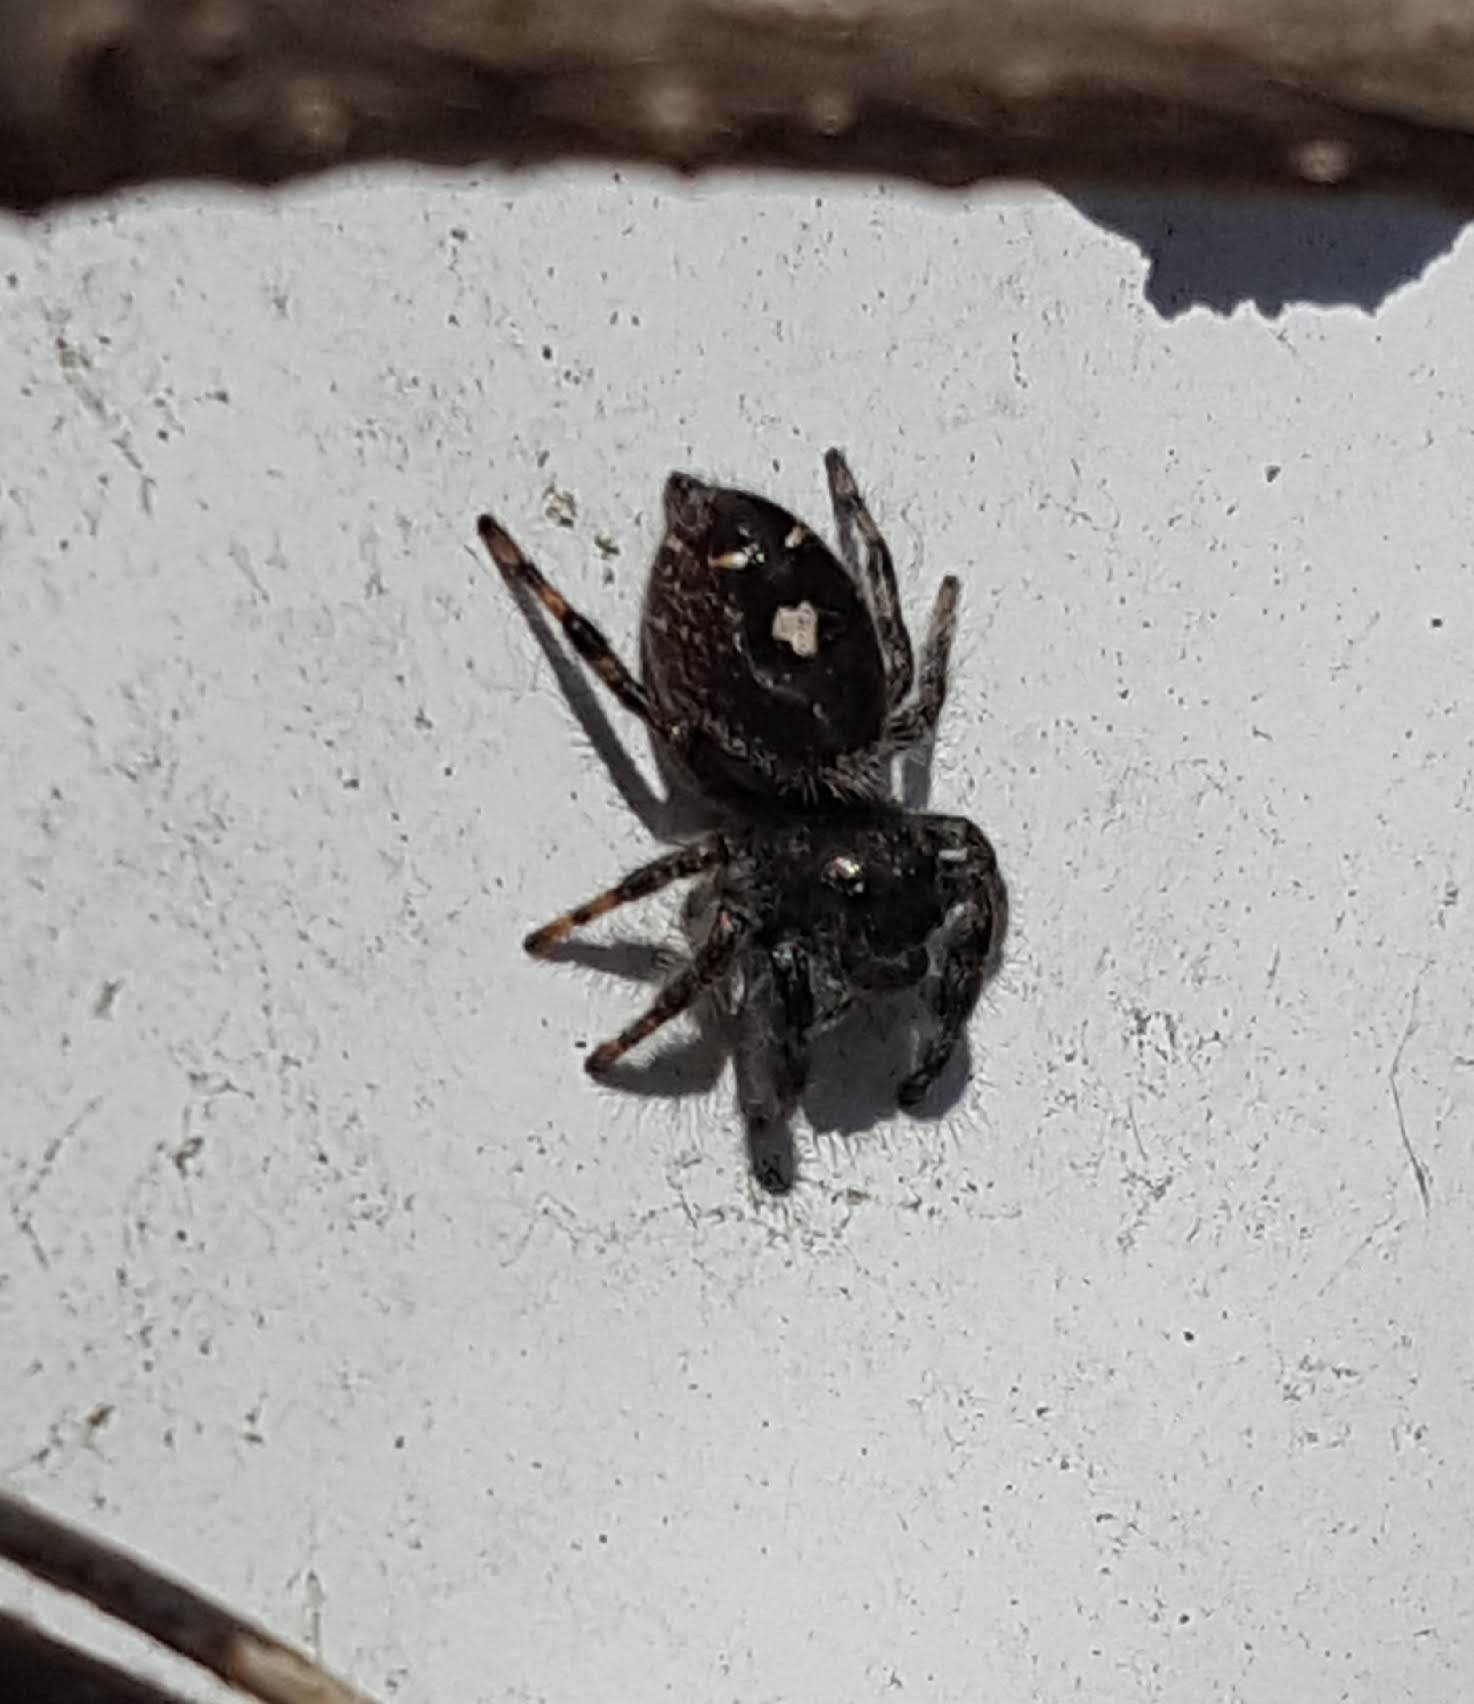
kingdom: Animalia
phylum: Arthropoda
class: Arachnida
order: Araneae
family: Salticidae
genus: Phidippus
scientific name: Phidippus audax
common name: Bold jumper
